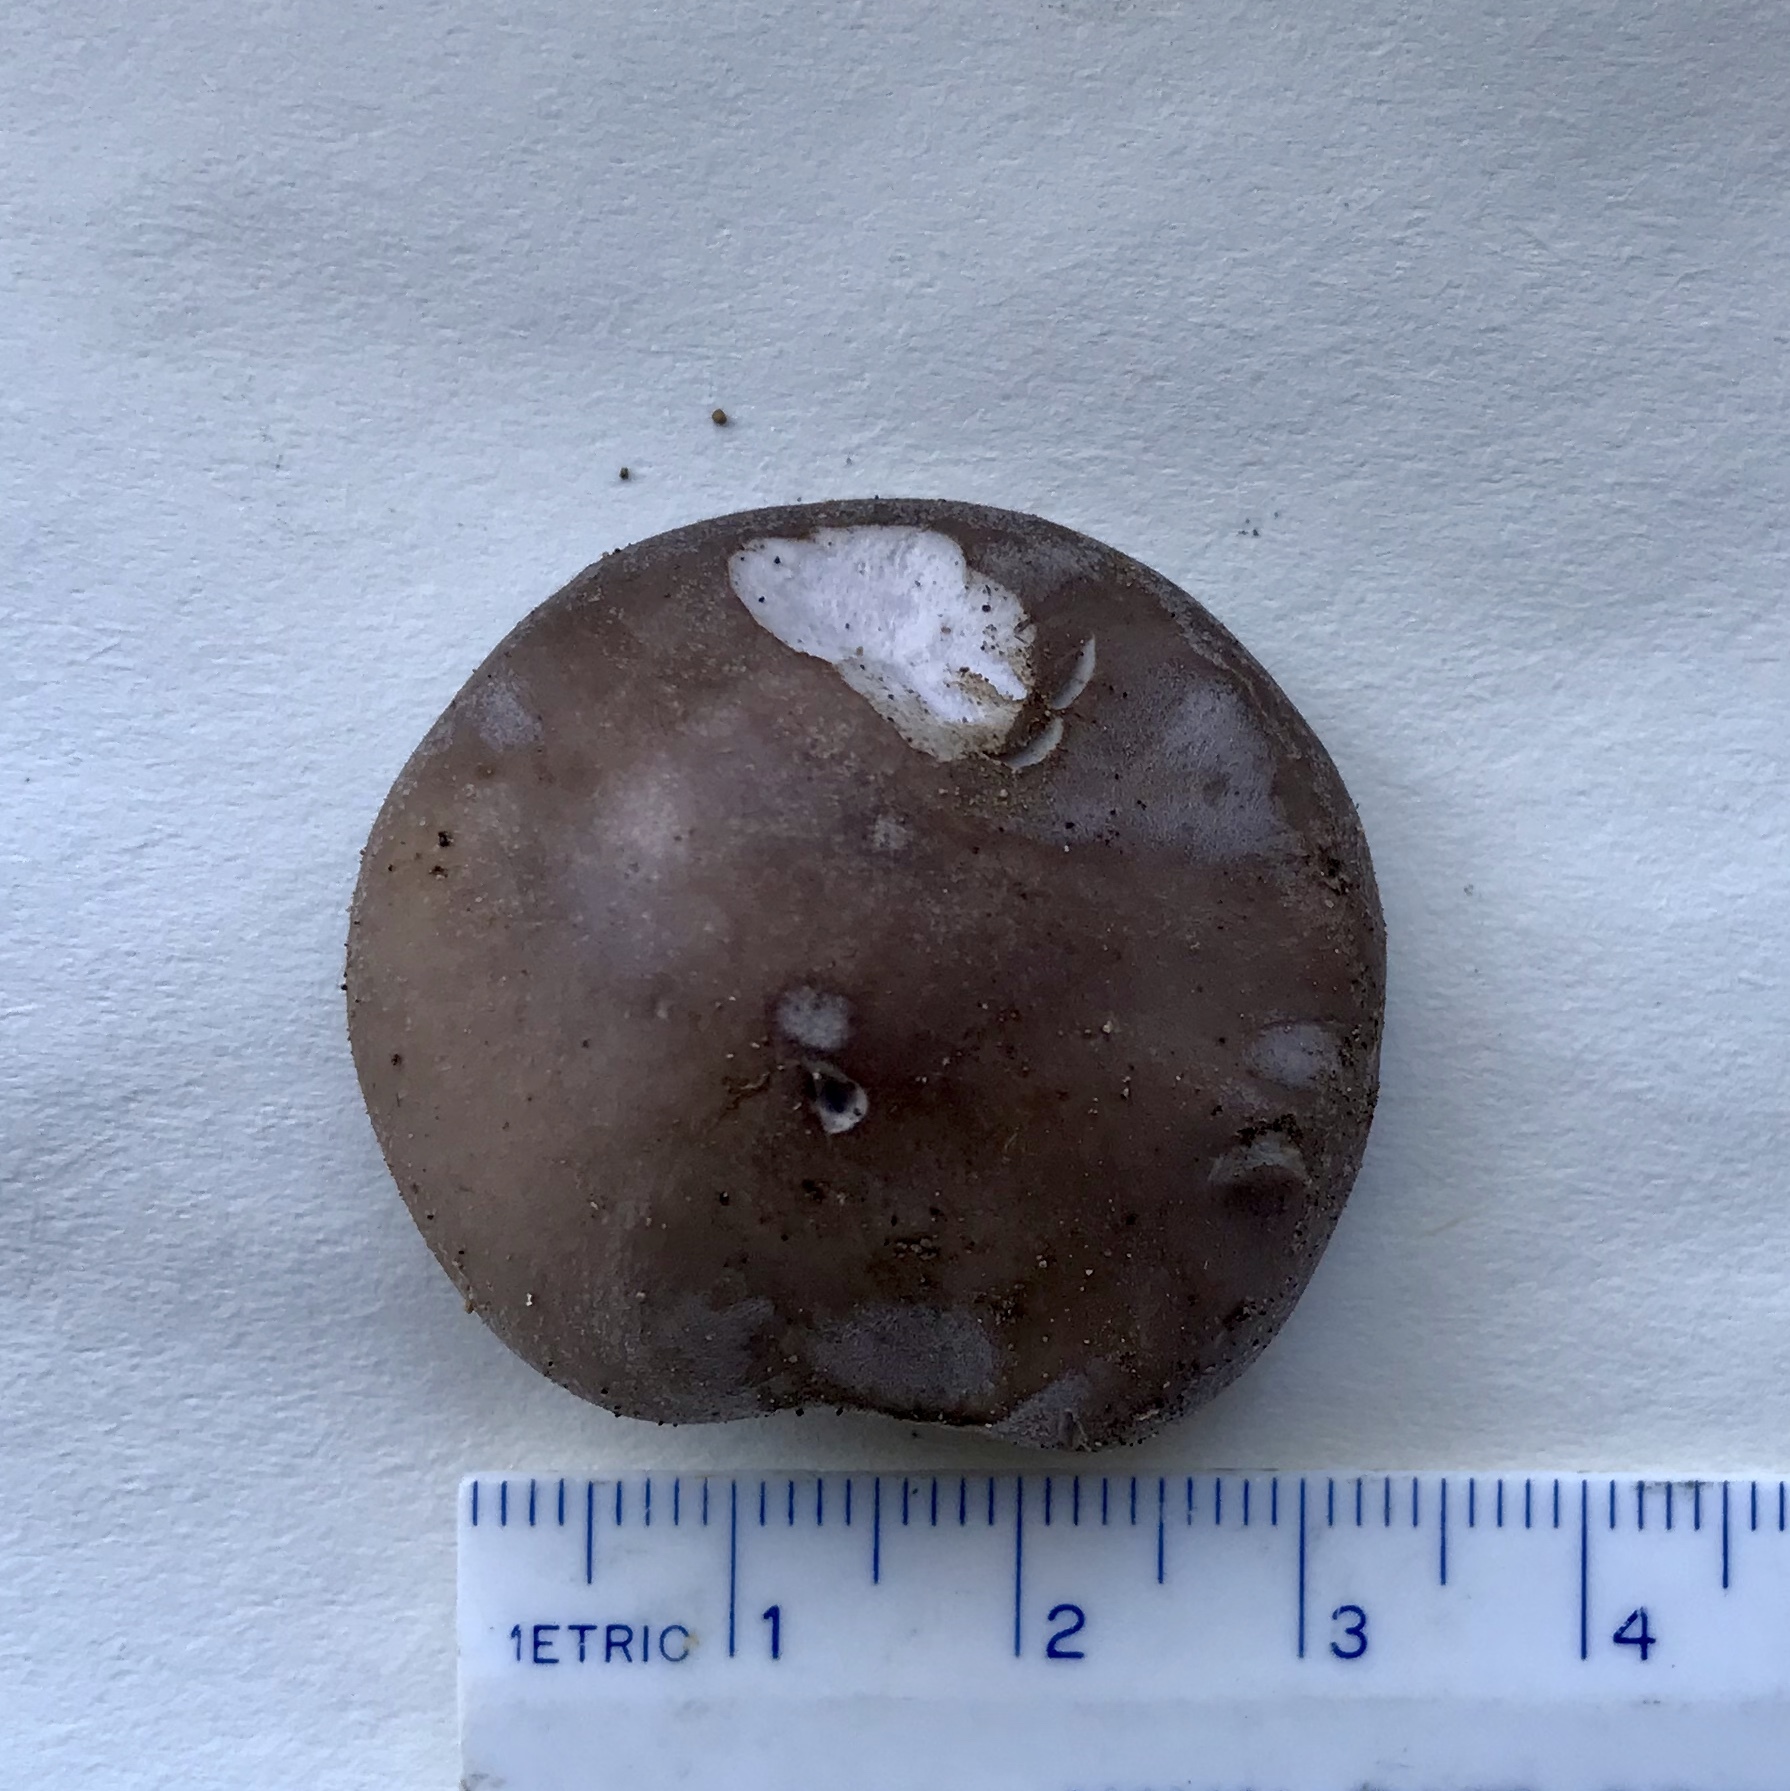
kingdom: Fungi
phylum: Basidiomycota
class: Agaricomycetes
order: Agaricales
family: Tricholomataceae
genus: Collybia
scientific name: Collybia
